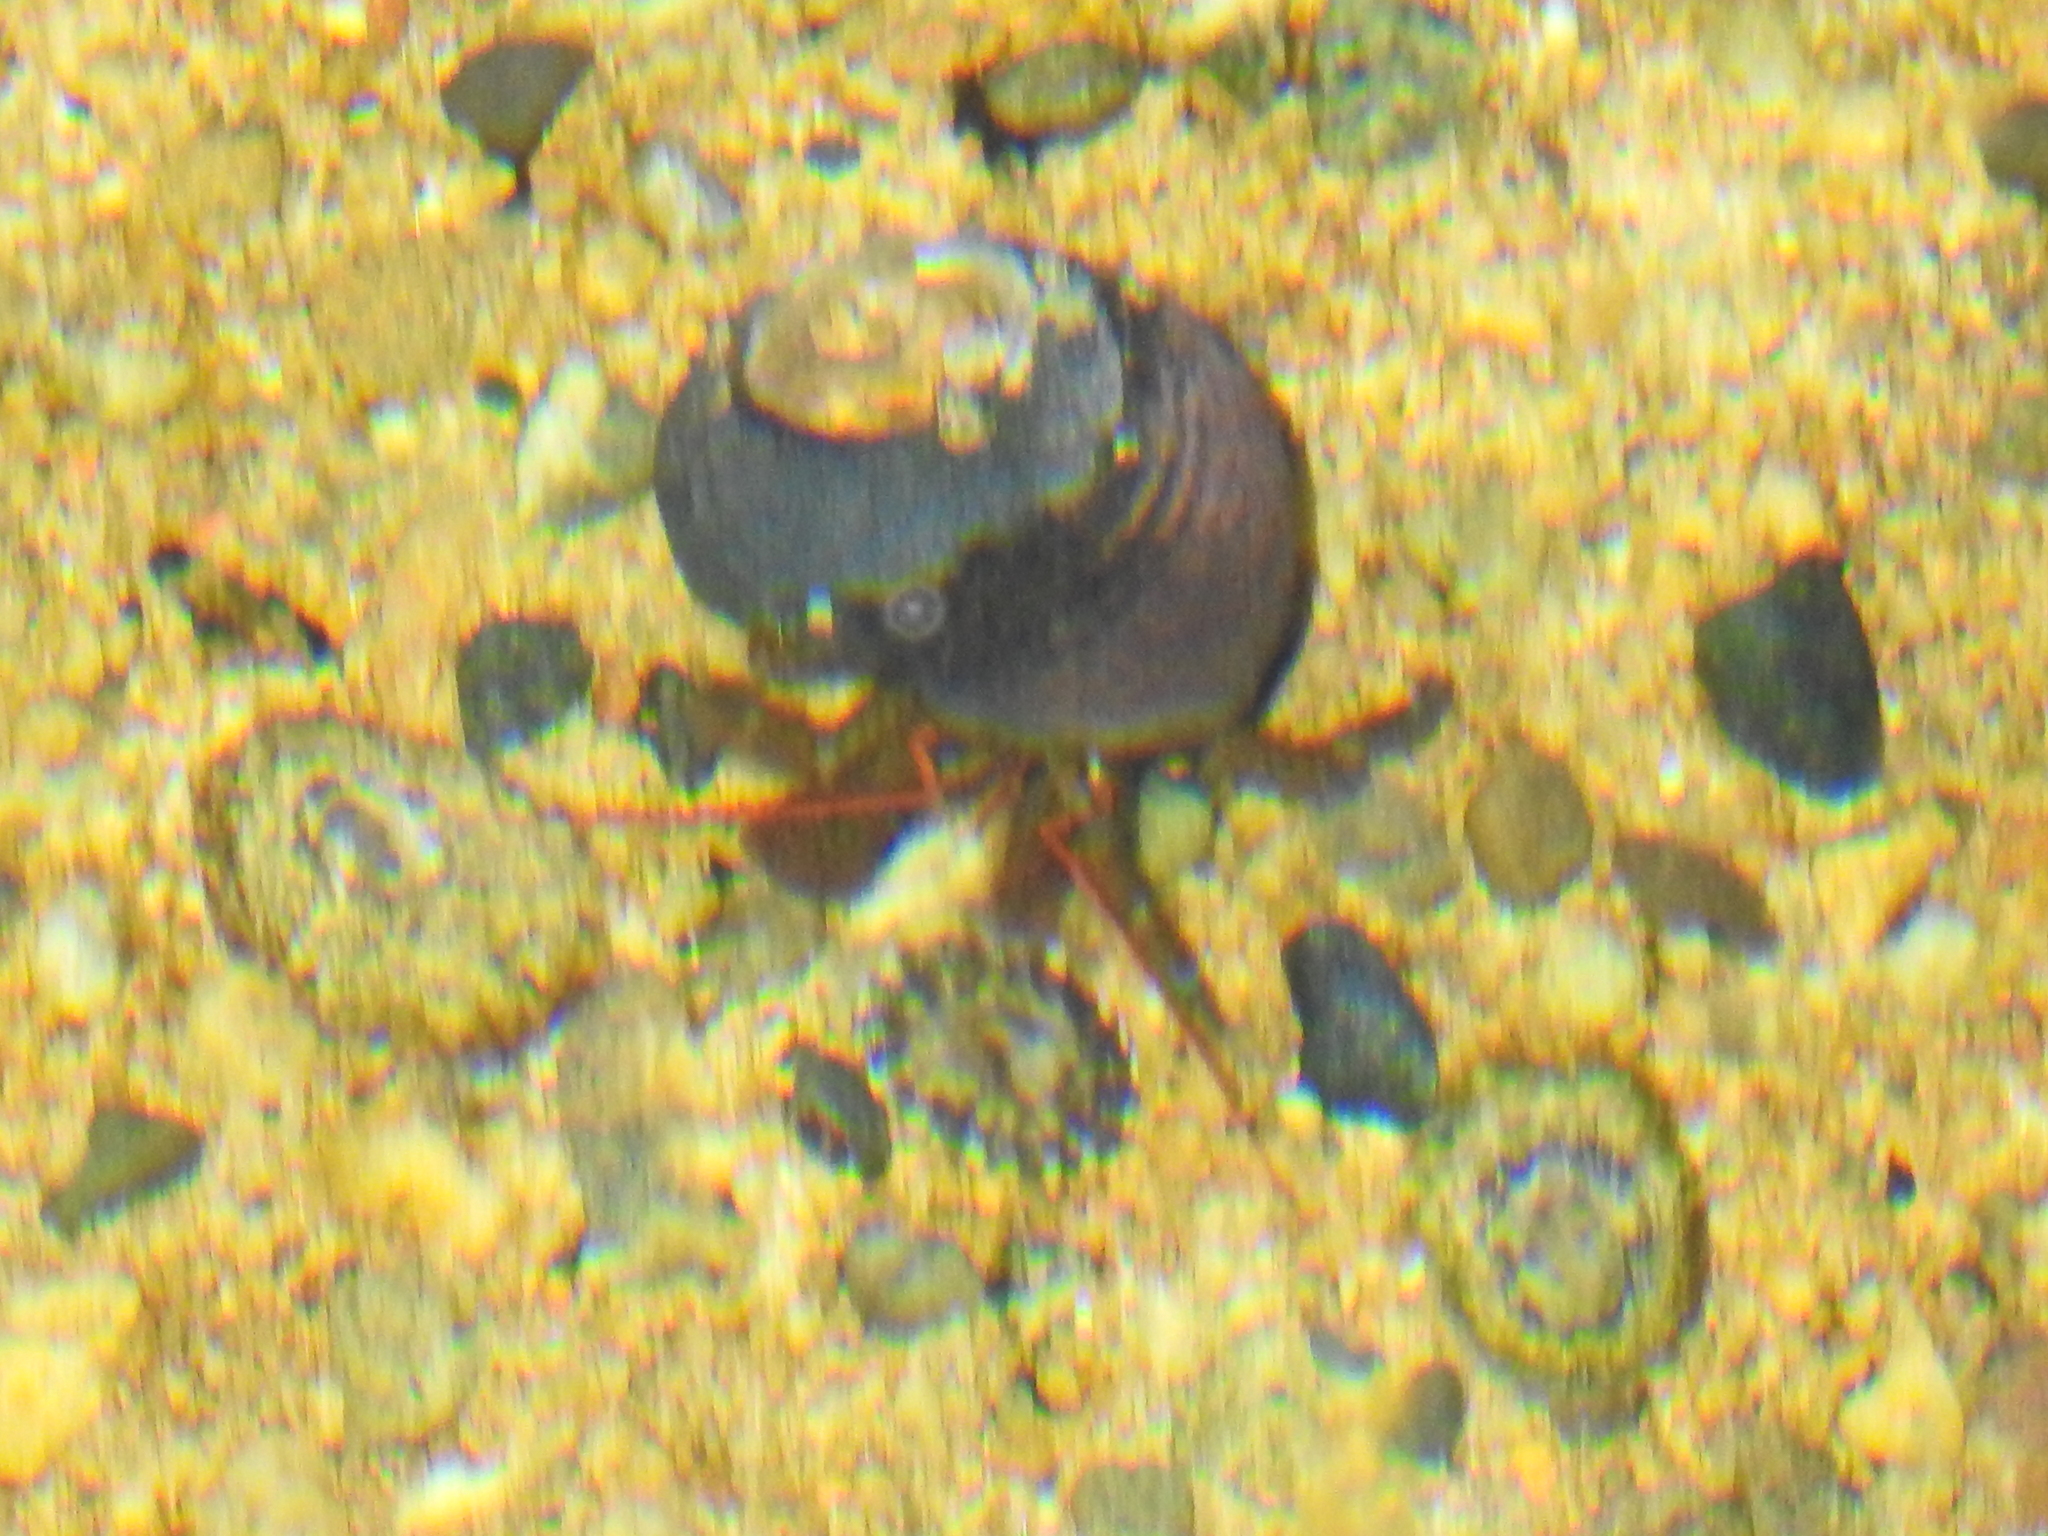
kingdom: Animalia
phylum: Arthropoda
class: Malacostraca
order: Decapoda
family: Paguridae
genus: Pagurus
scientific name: Pagurus samuelis
